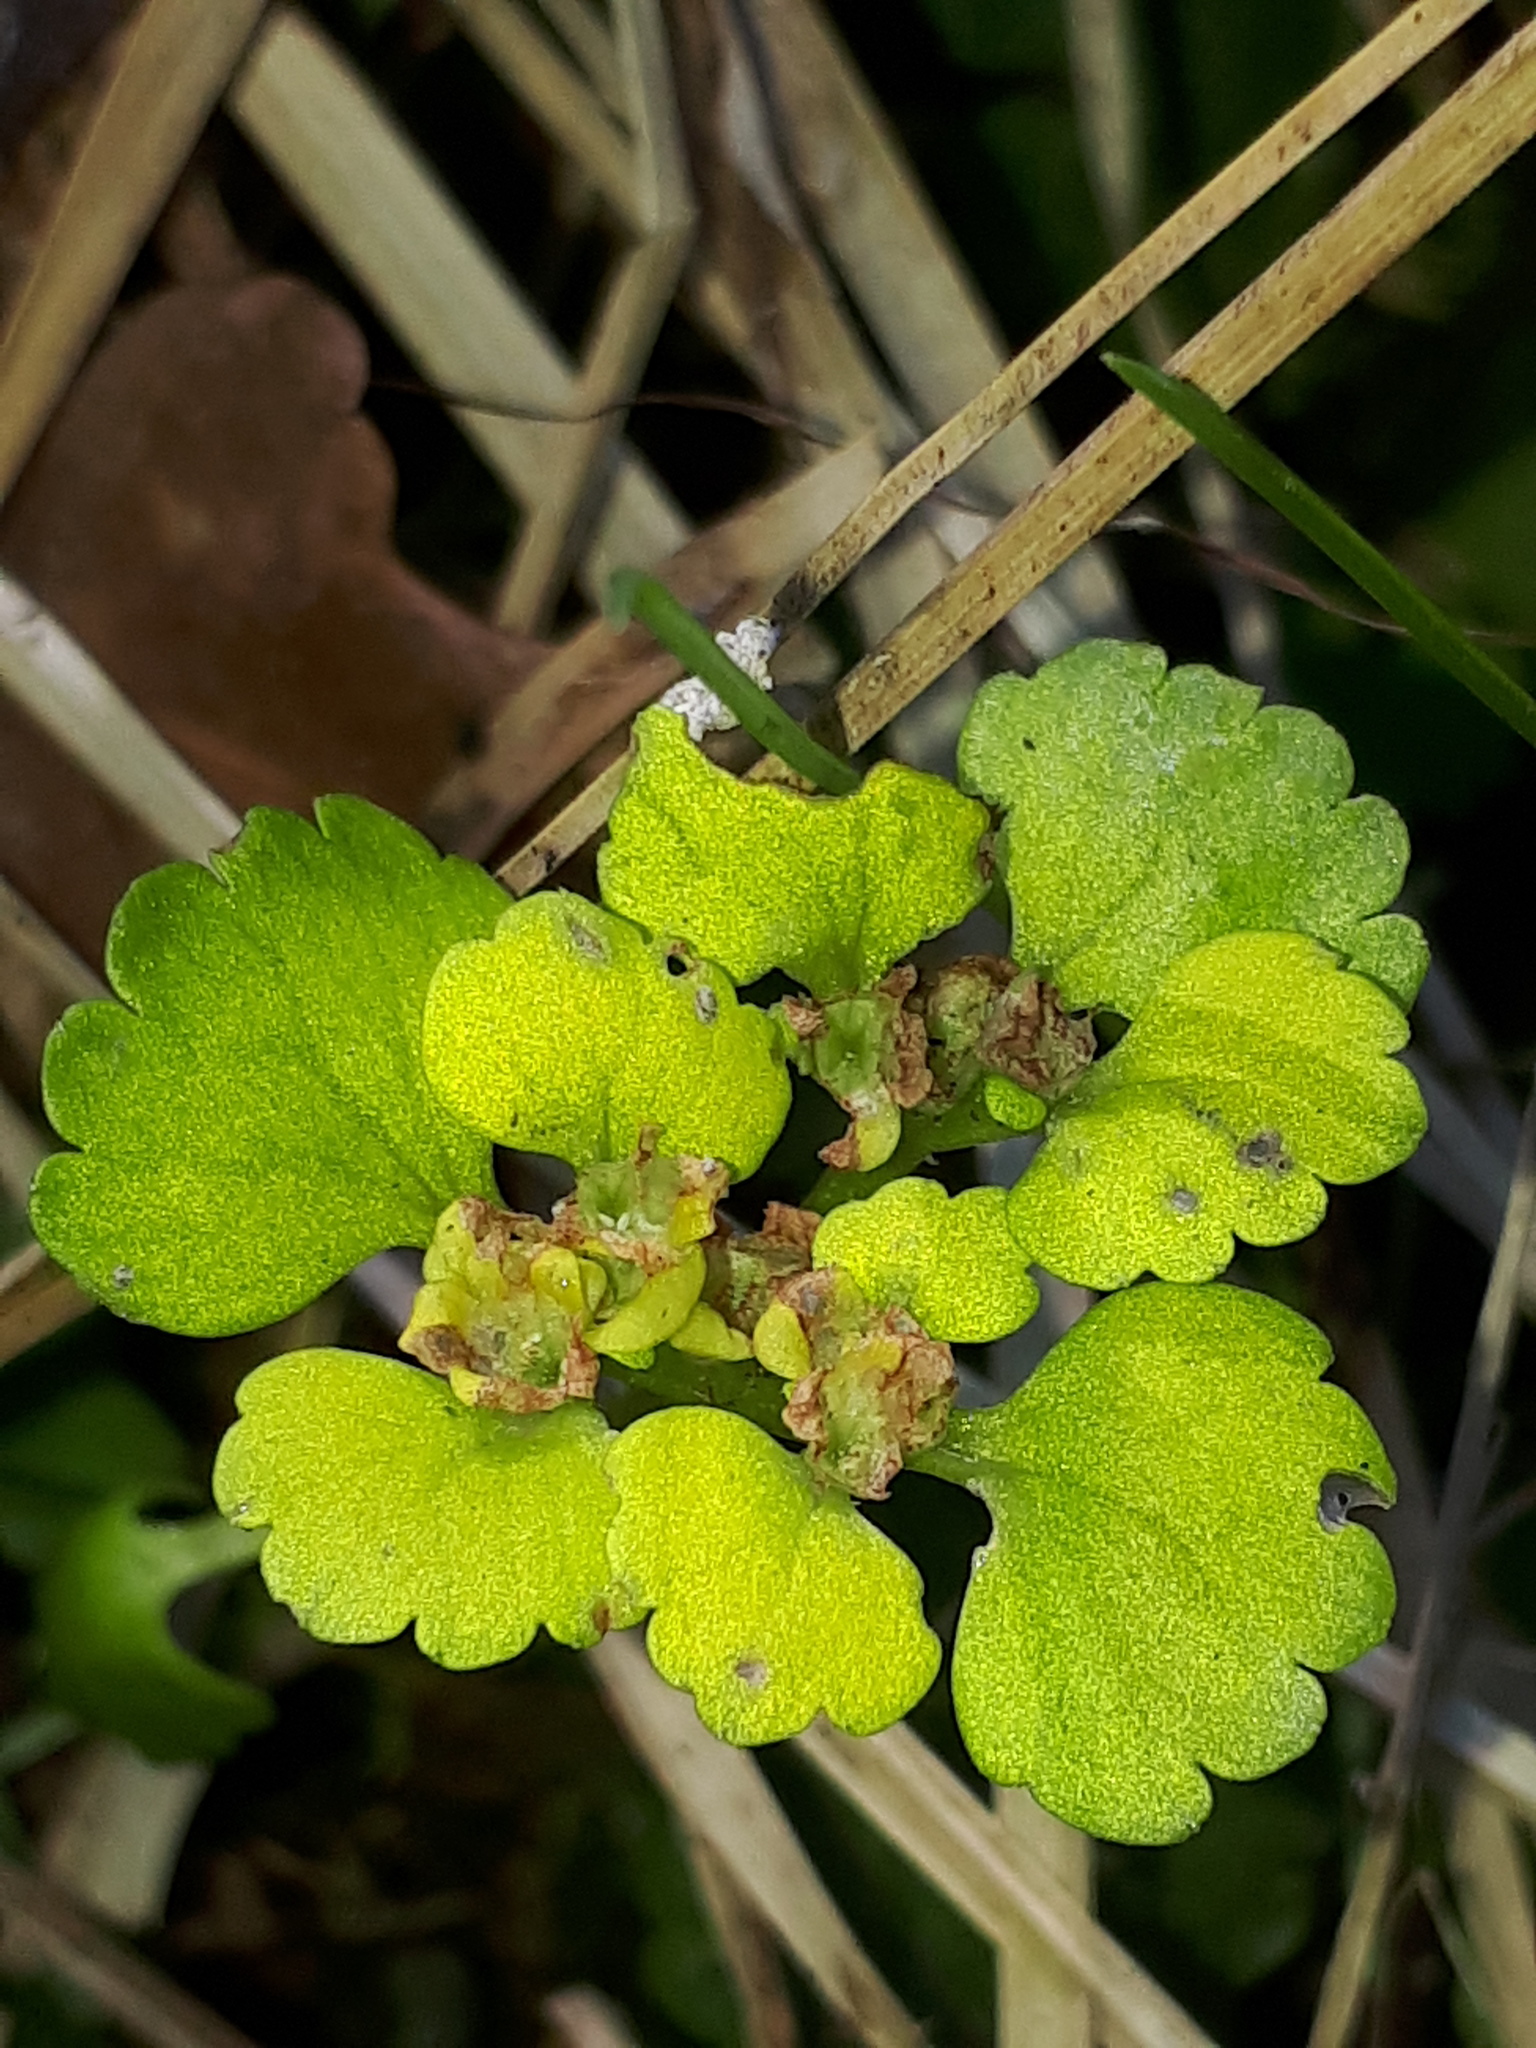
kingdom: Plantae
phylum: Tracheophyta
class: Magnoliopsida
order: Saxifragales
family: Saxifragaceae
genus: Chrysosplenium
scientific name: Chrysosplenium alternifolium
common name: Alternate-leaved golden-saxifrage
